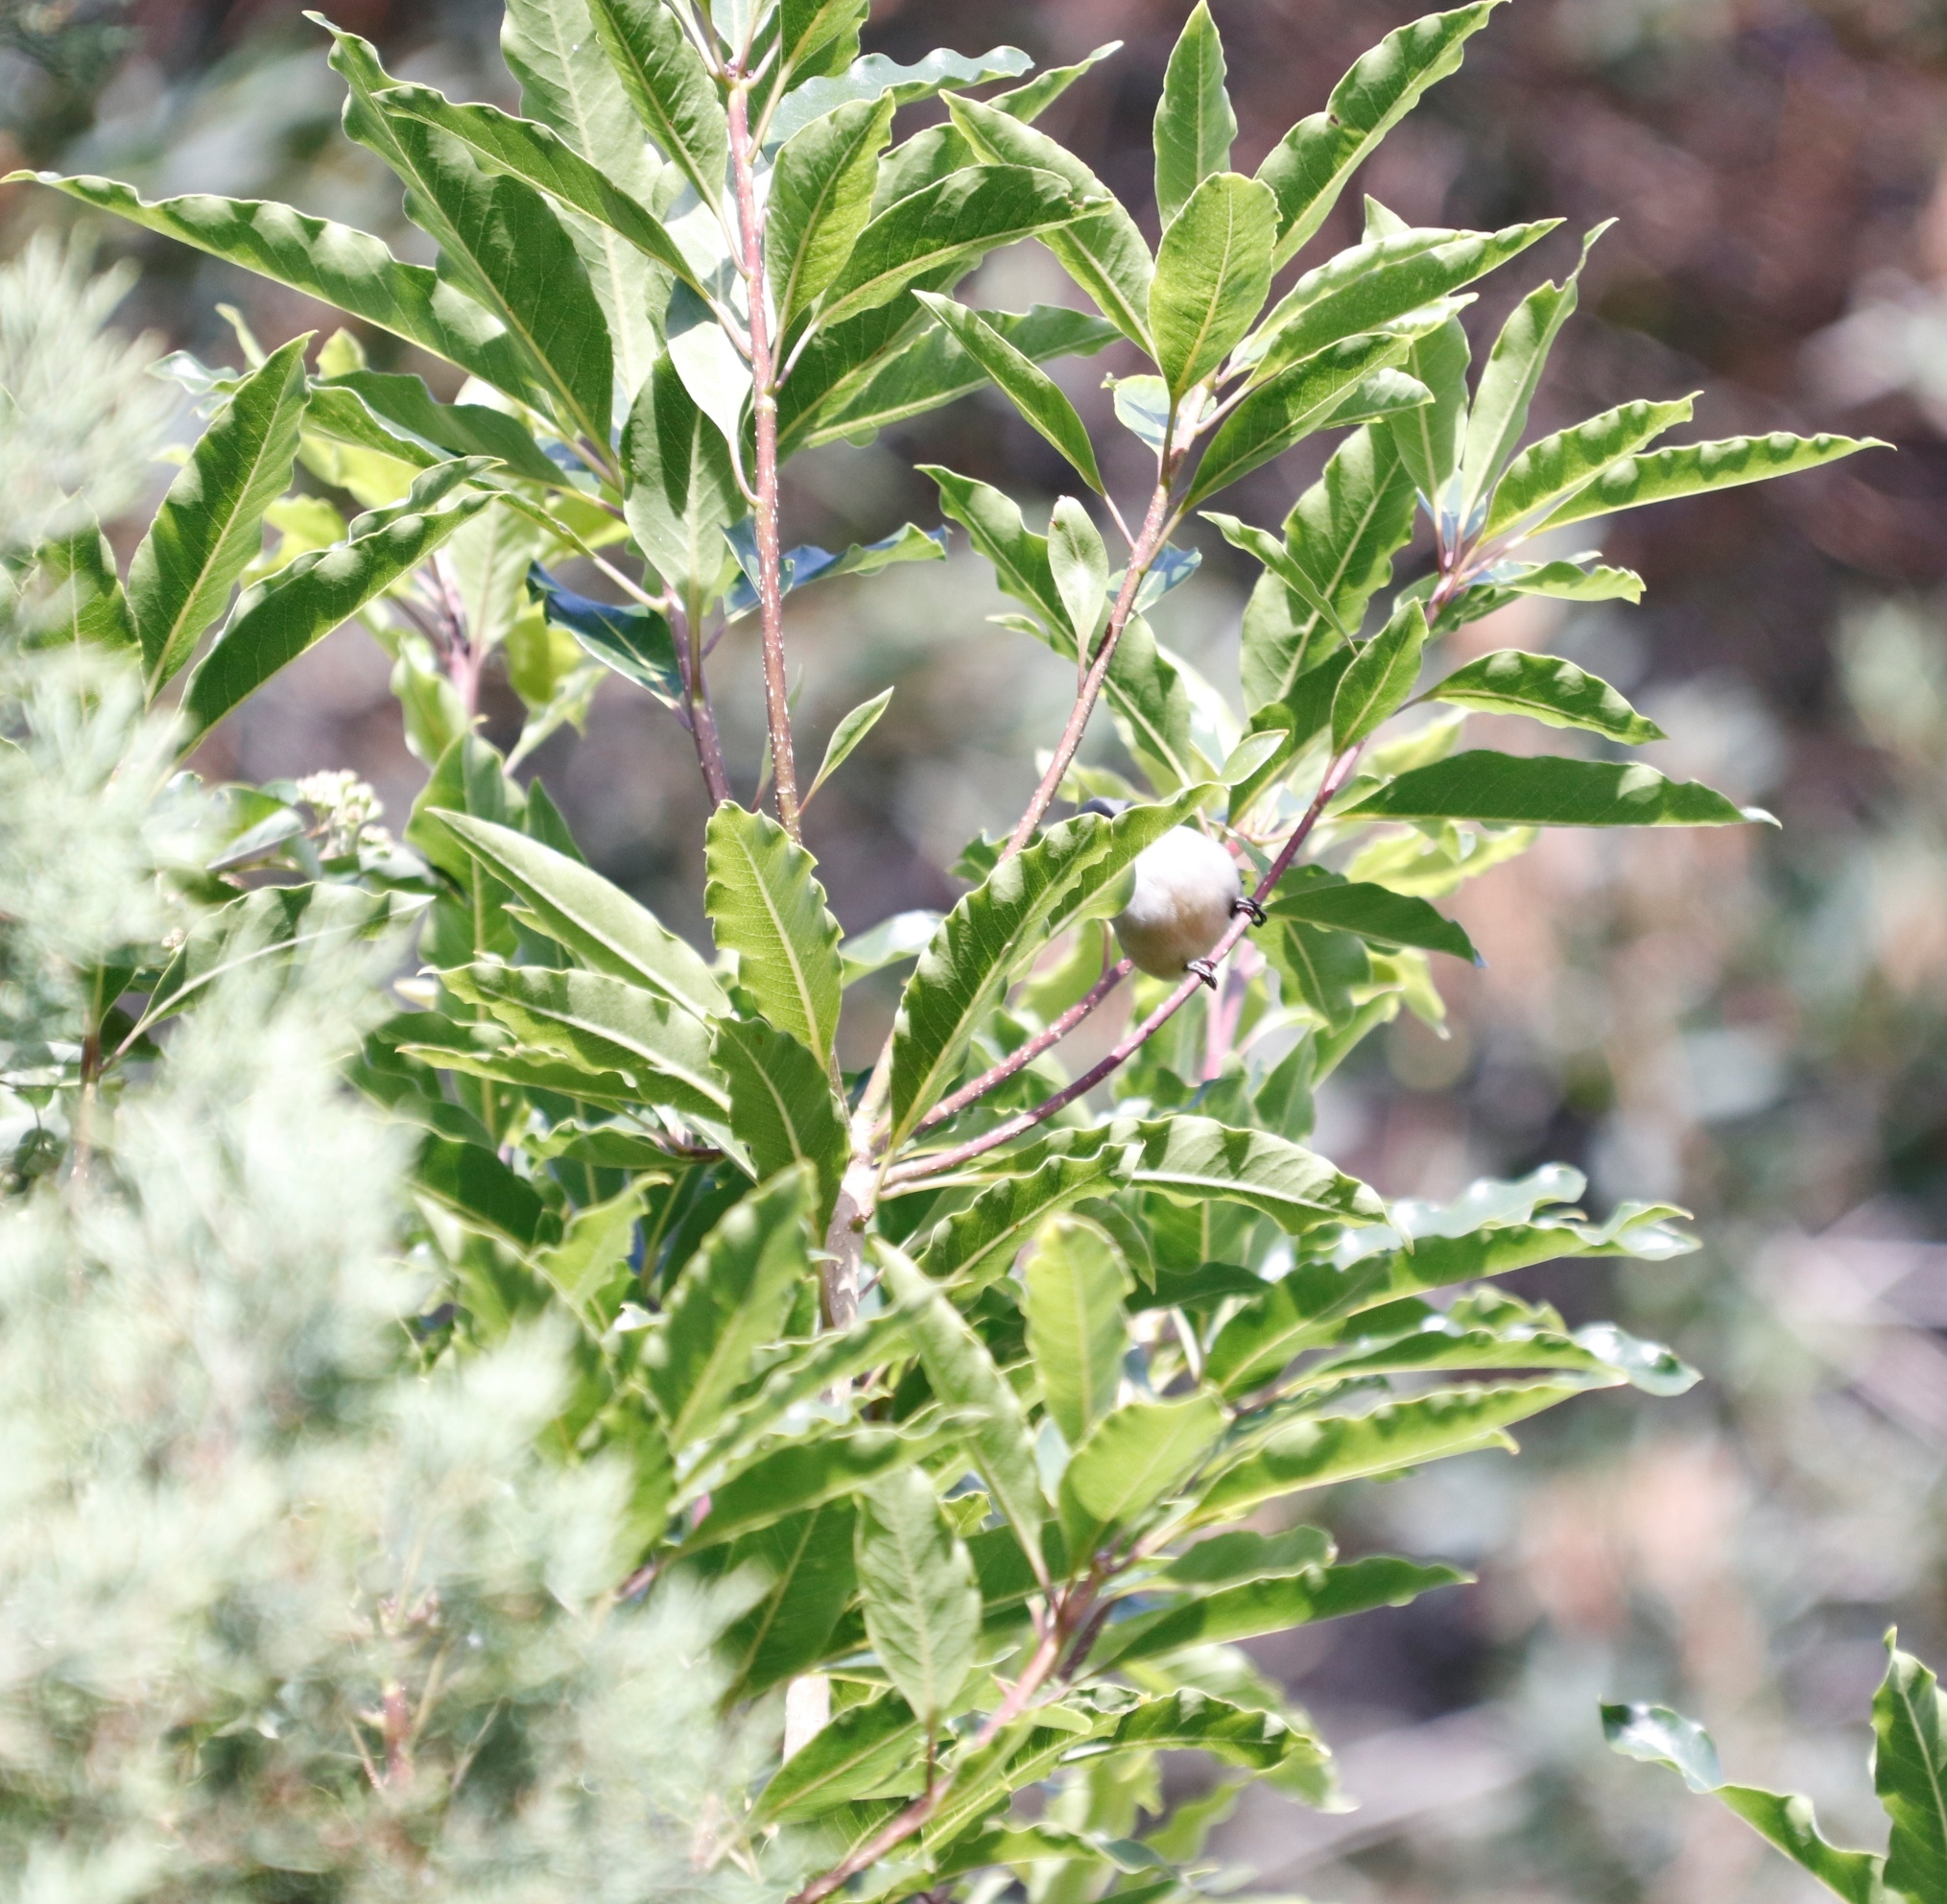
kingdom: Animalia
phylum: Chordata
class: Aves
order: Passeriformes
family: Estrildidae
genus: Coccopygia
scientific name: Coccopygia melanotis
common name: Swee waxbill
